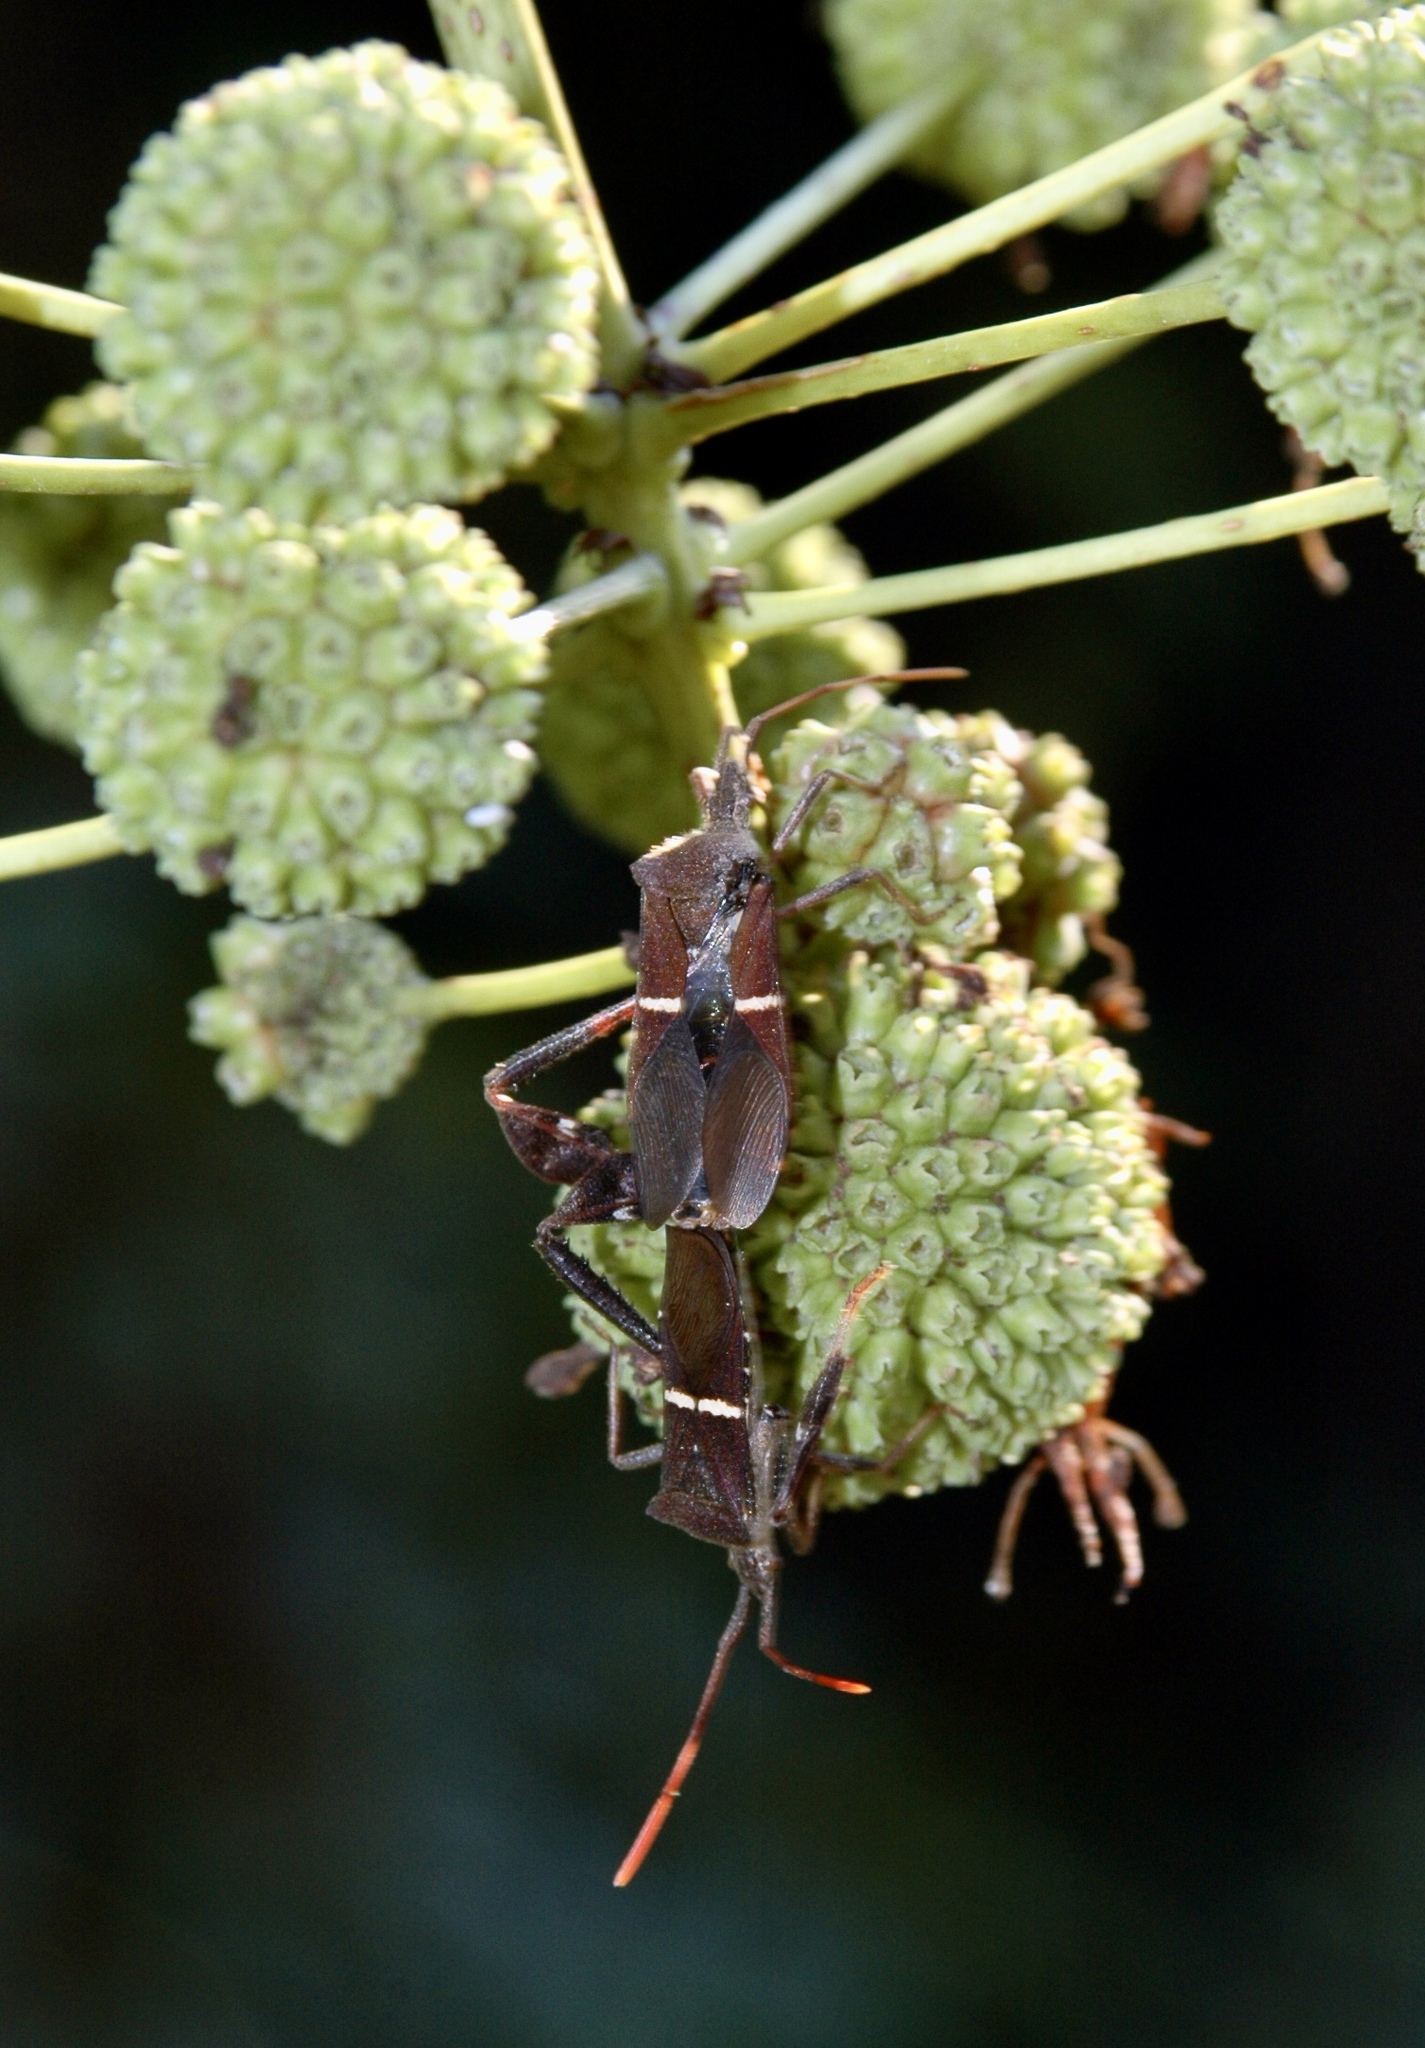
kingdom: Animalia
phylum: Arthropoda
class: Insecta
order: Hemiptera
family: Coreidae
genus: Leptoglossus
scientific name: Leptoglossus phyllopus
